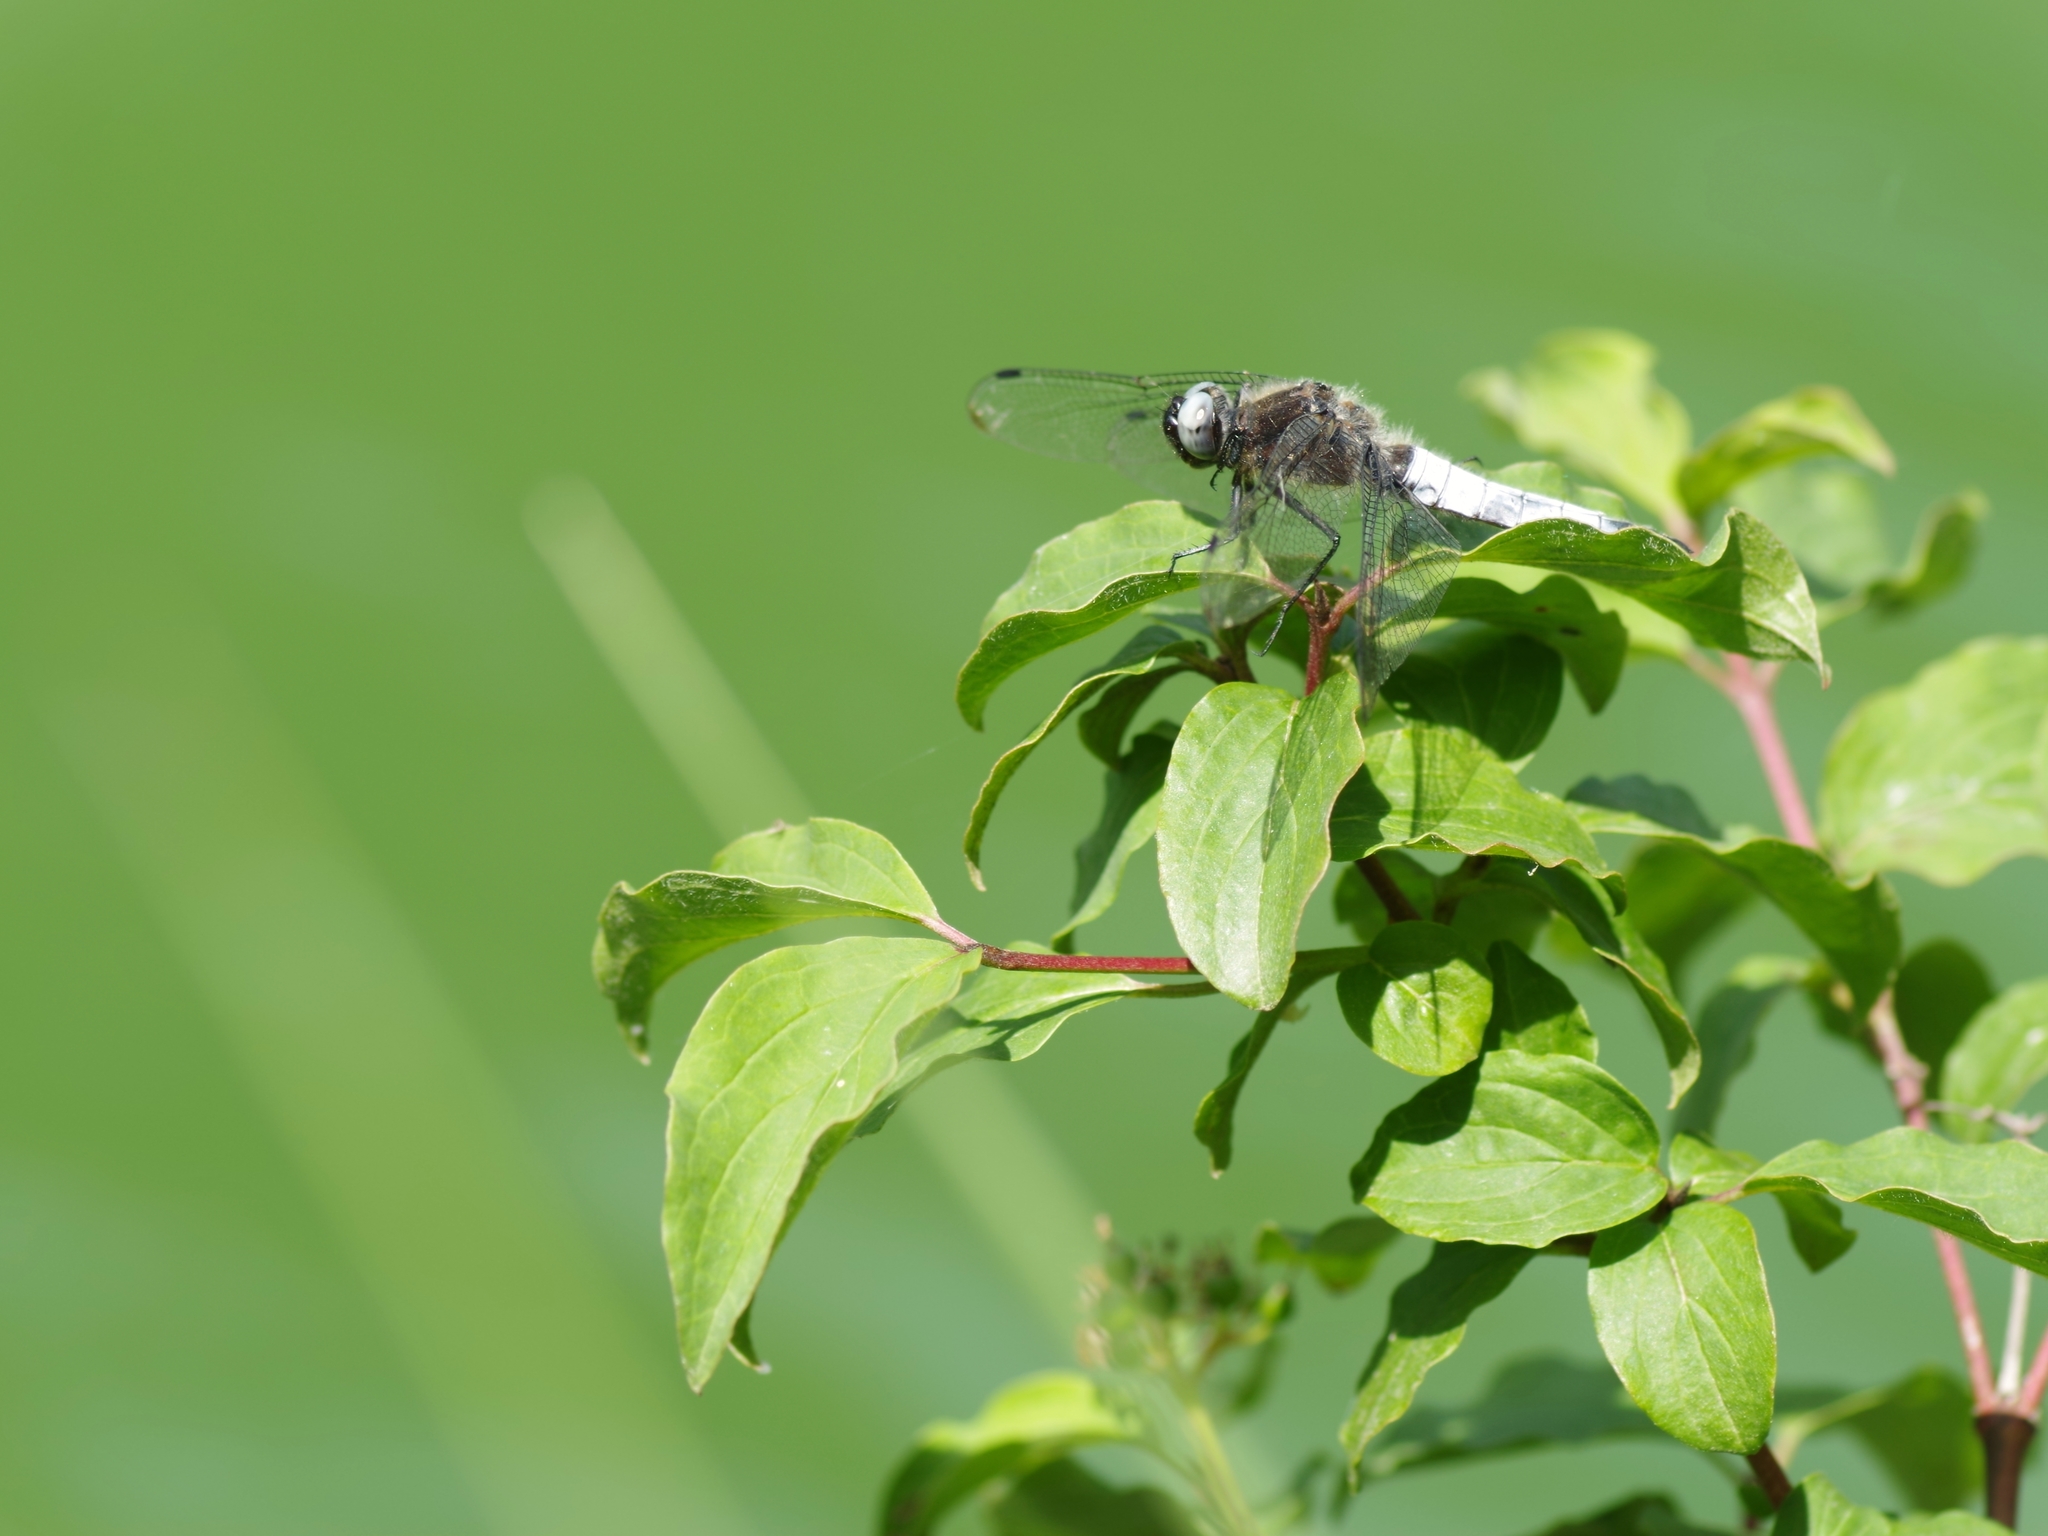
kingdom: Animalia
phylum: Arthropoda
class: Insecta
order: Odonata
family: Libellulidae
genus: Libellula
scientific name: Libellula fulva
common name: Blue chaser
